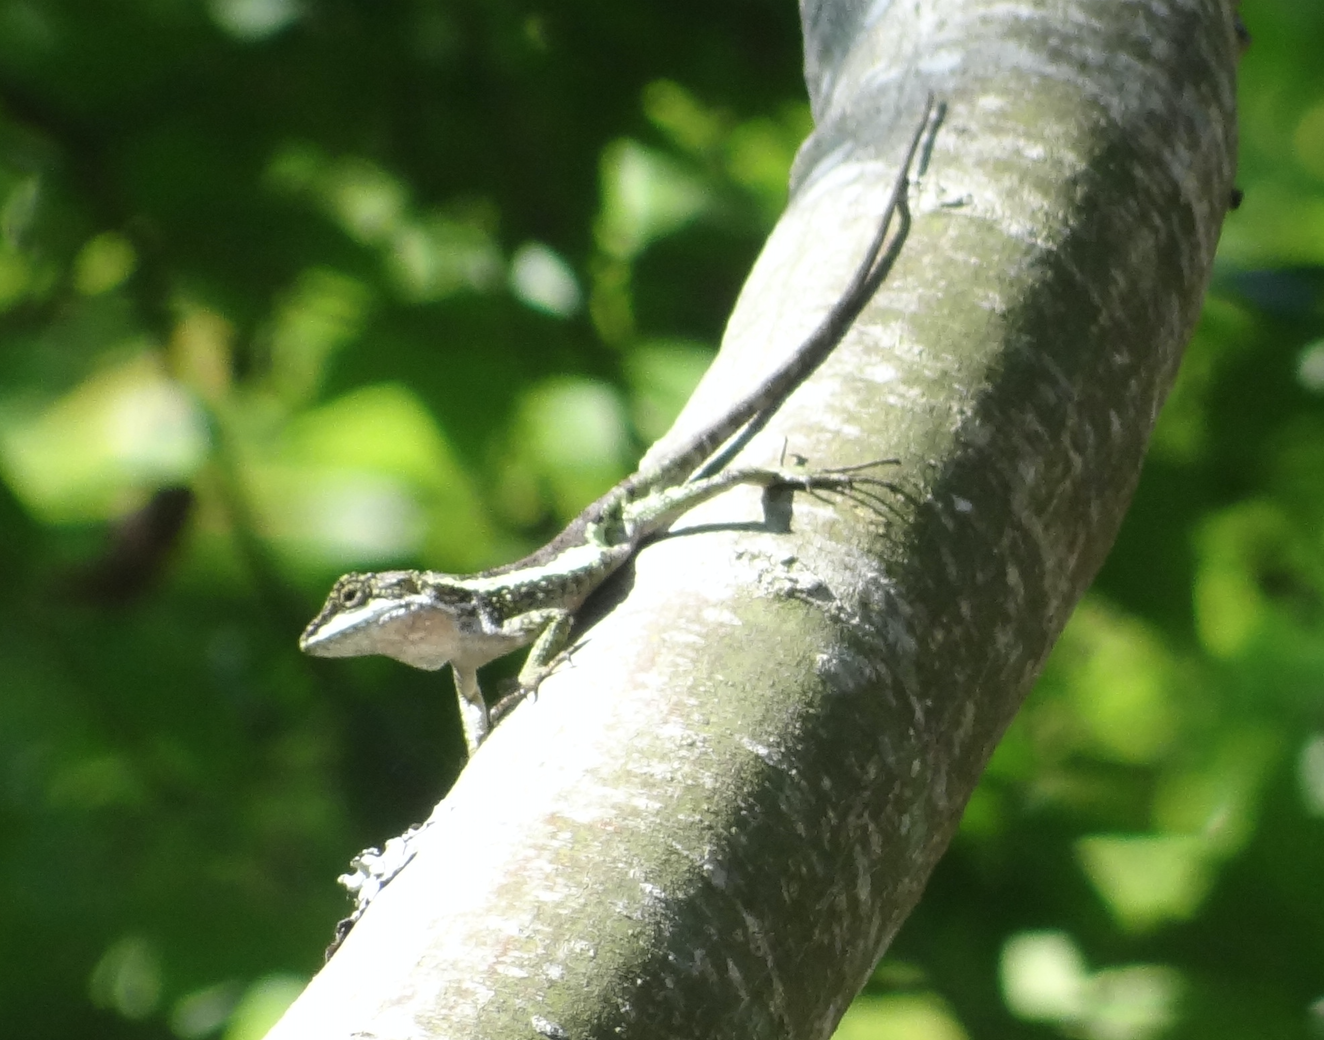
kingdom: Animalia
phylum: Chordata
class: Squamata
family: Agamidae
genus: Diploderma
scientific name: Diploderma brevipes
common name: Short-legged japalure
